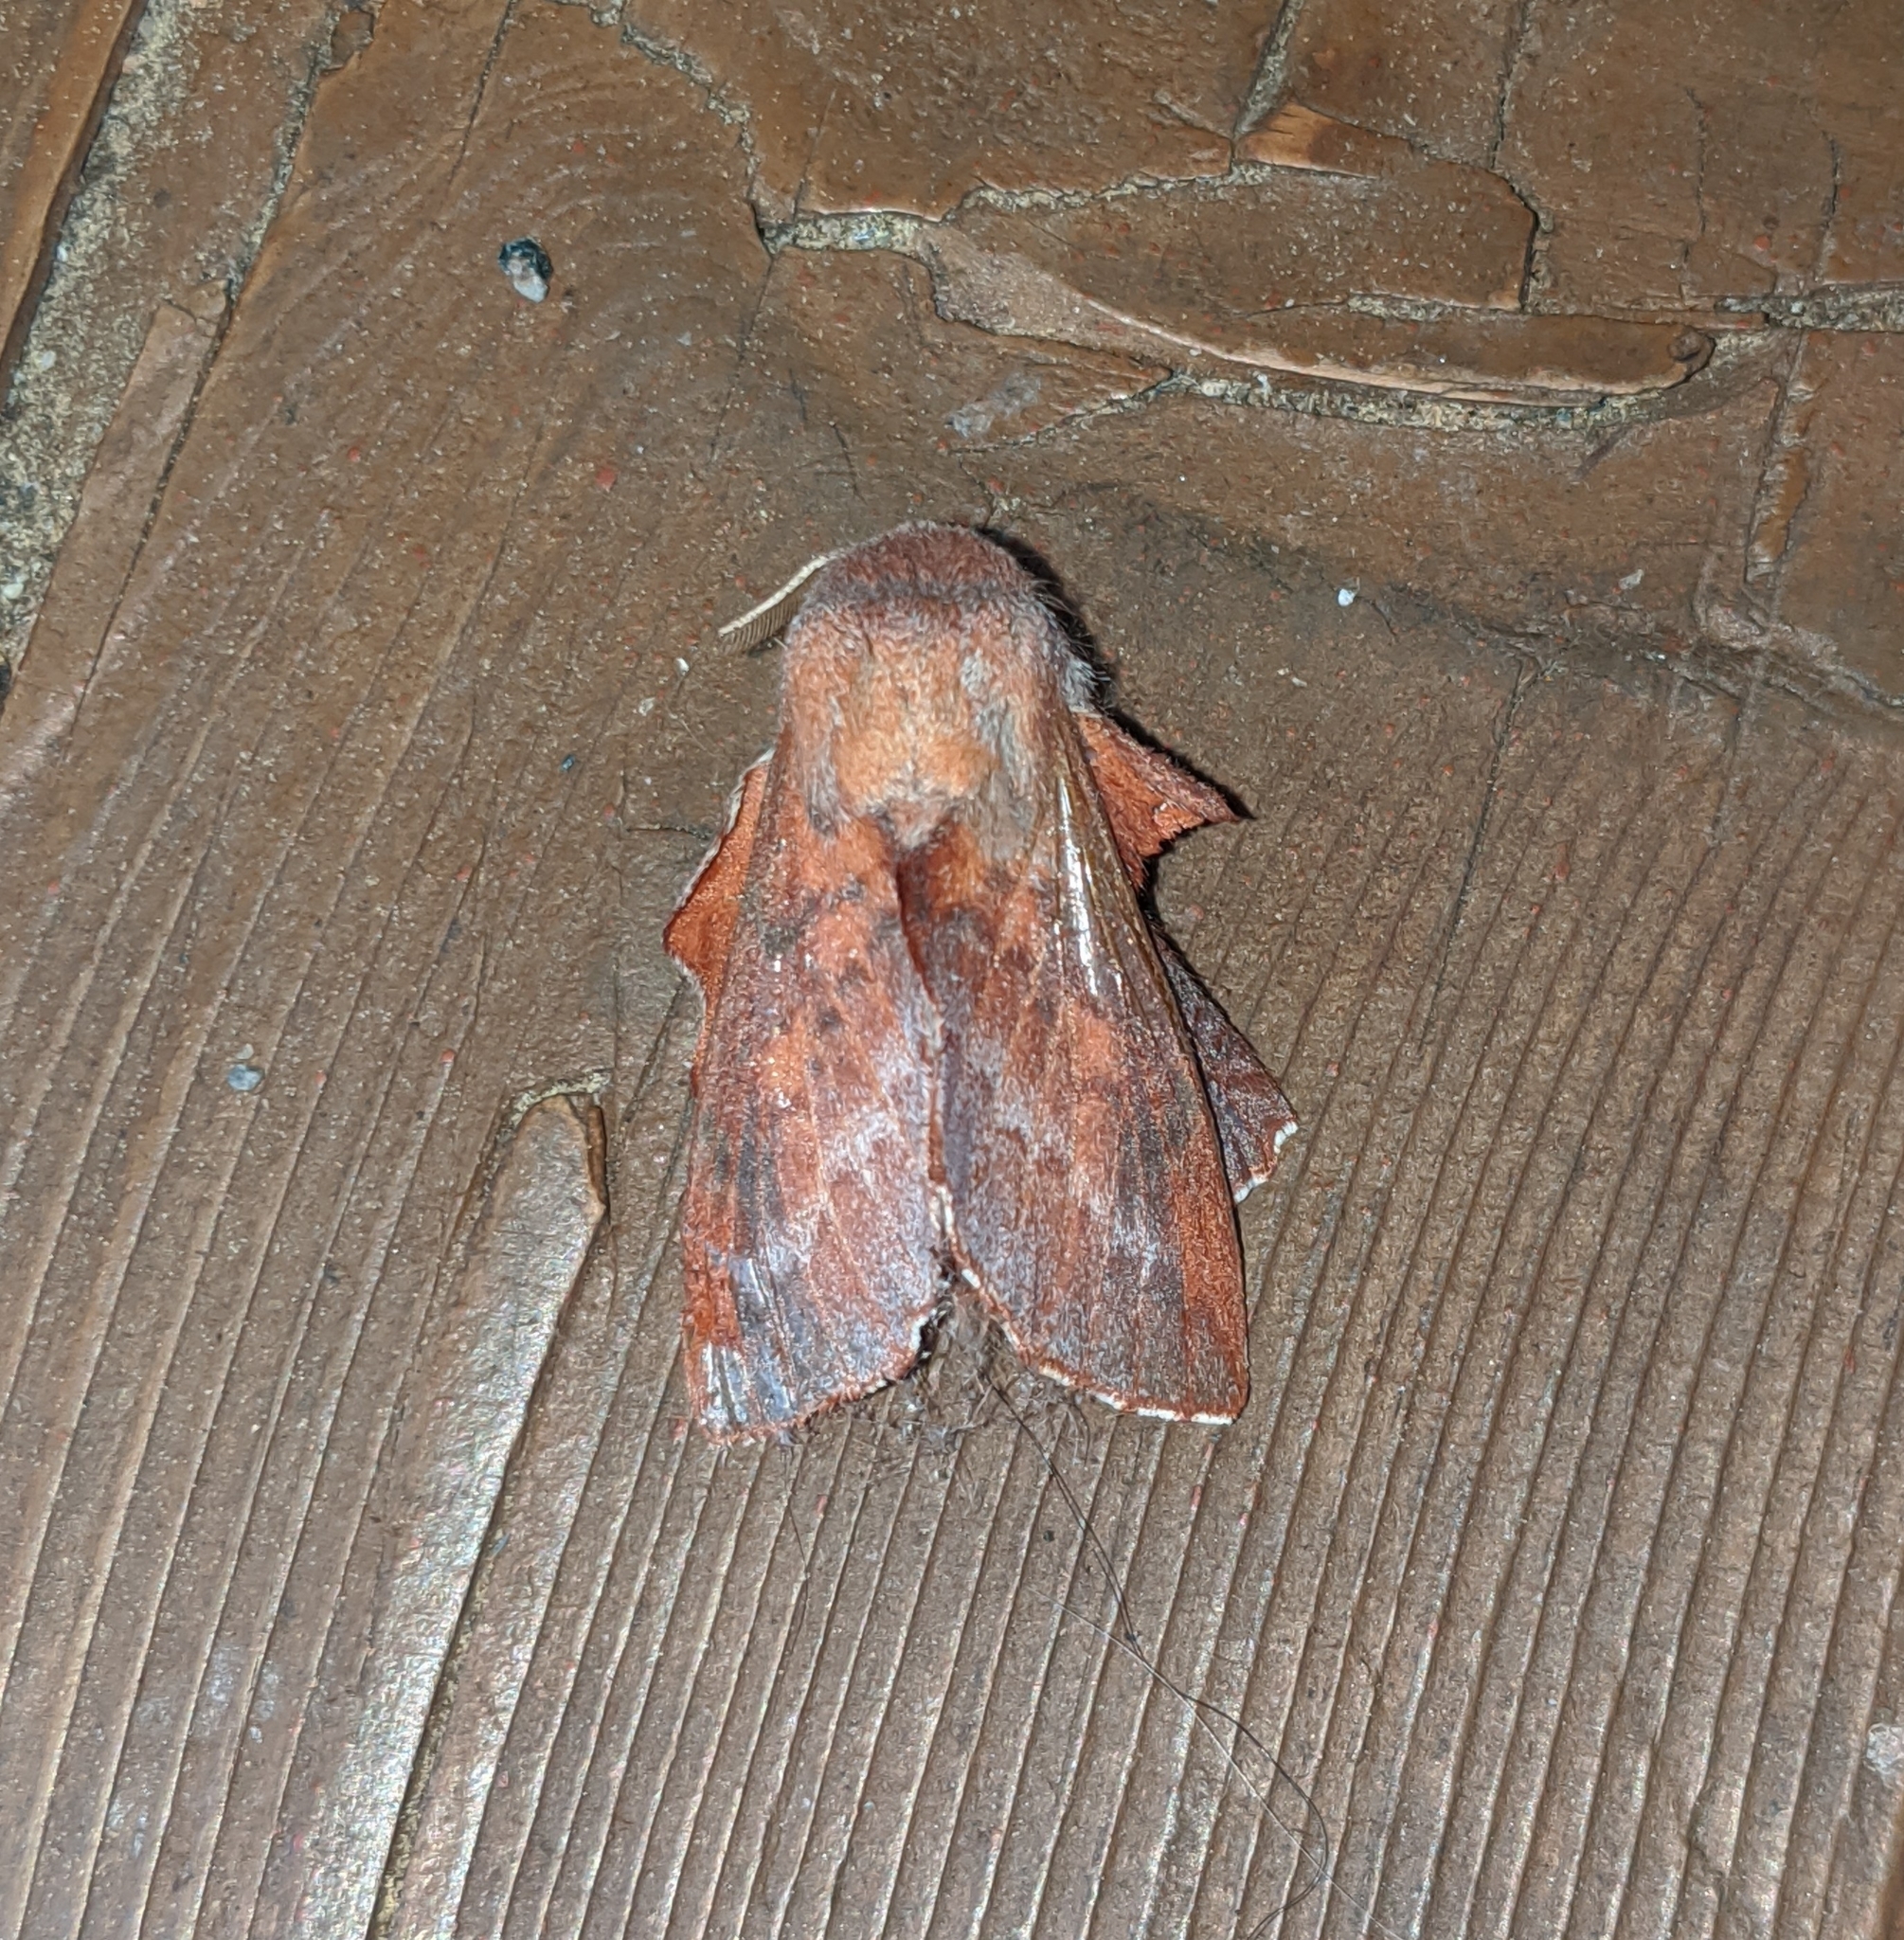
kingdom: Animalia
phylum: Arthropoda
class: Insecta
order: Lepidoptera
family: Lasiocampidae
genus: Phyllodesma
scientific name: Phyllodesma americana
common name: American lappet moth
